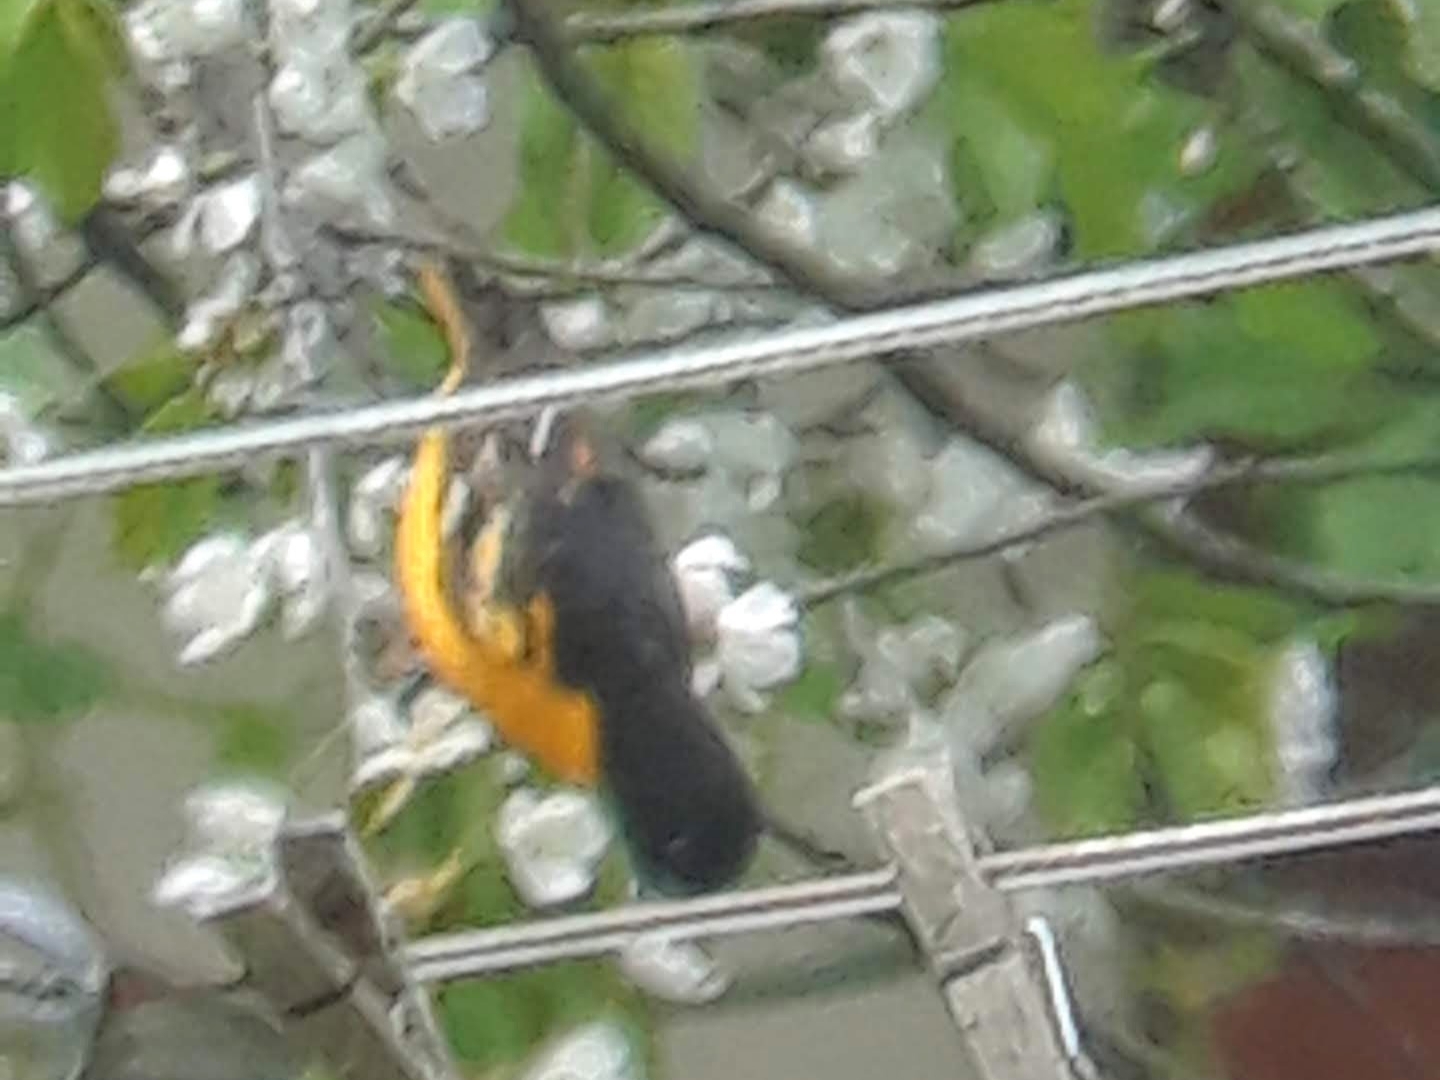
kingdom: Animalia
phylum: Chordata
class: Aves
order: Passeriformes
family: Icteridae
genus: Icterus
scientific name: Icterus galbula
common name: Baltimore oriole
